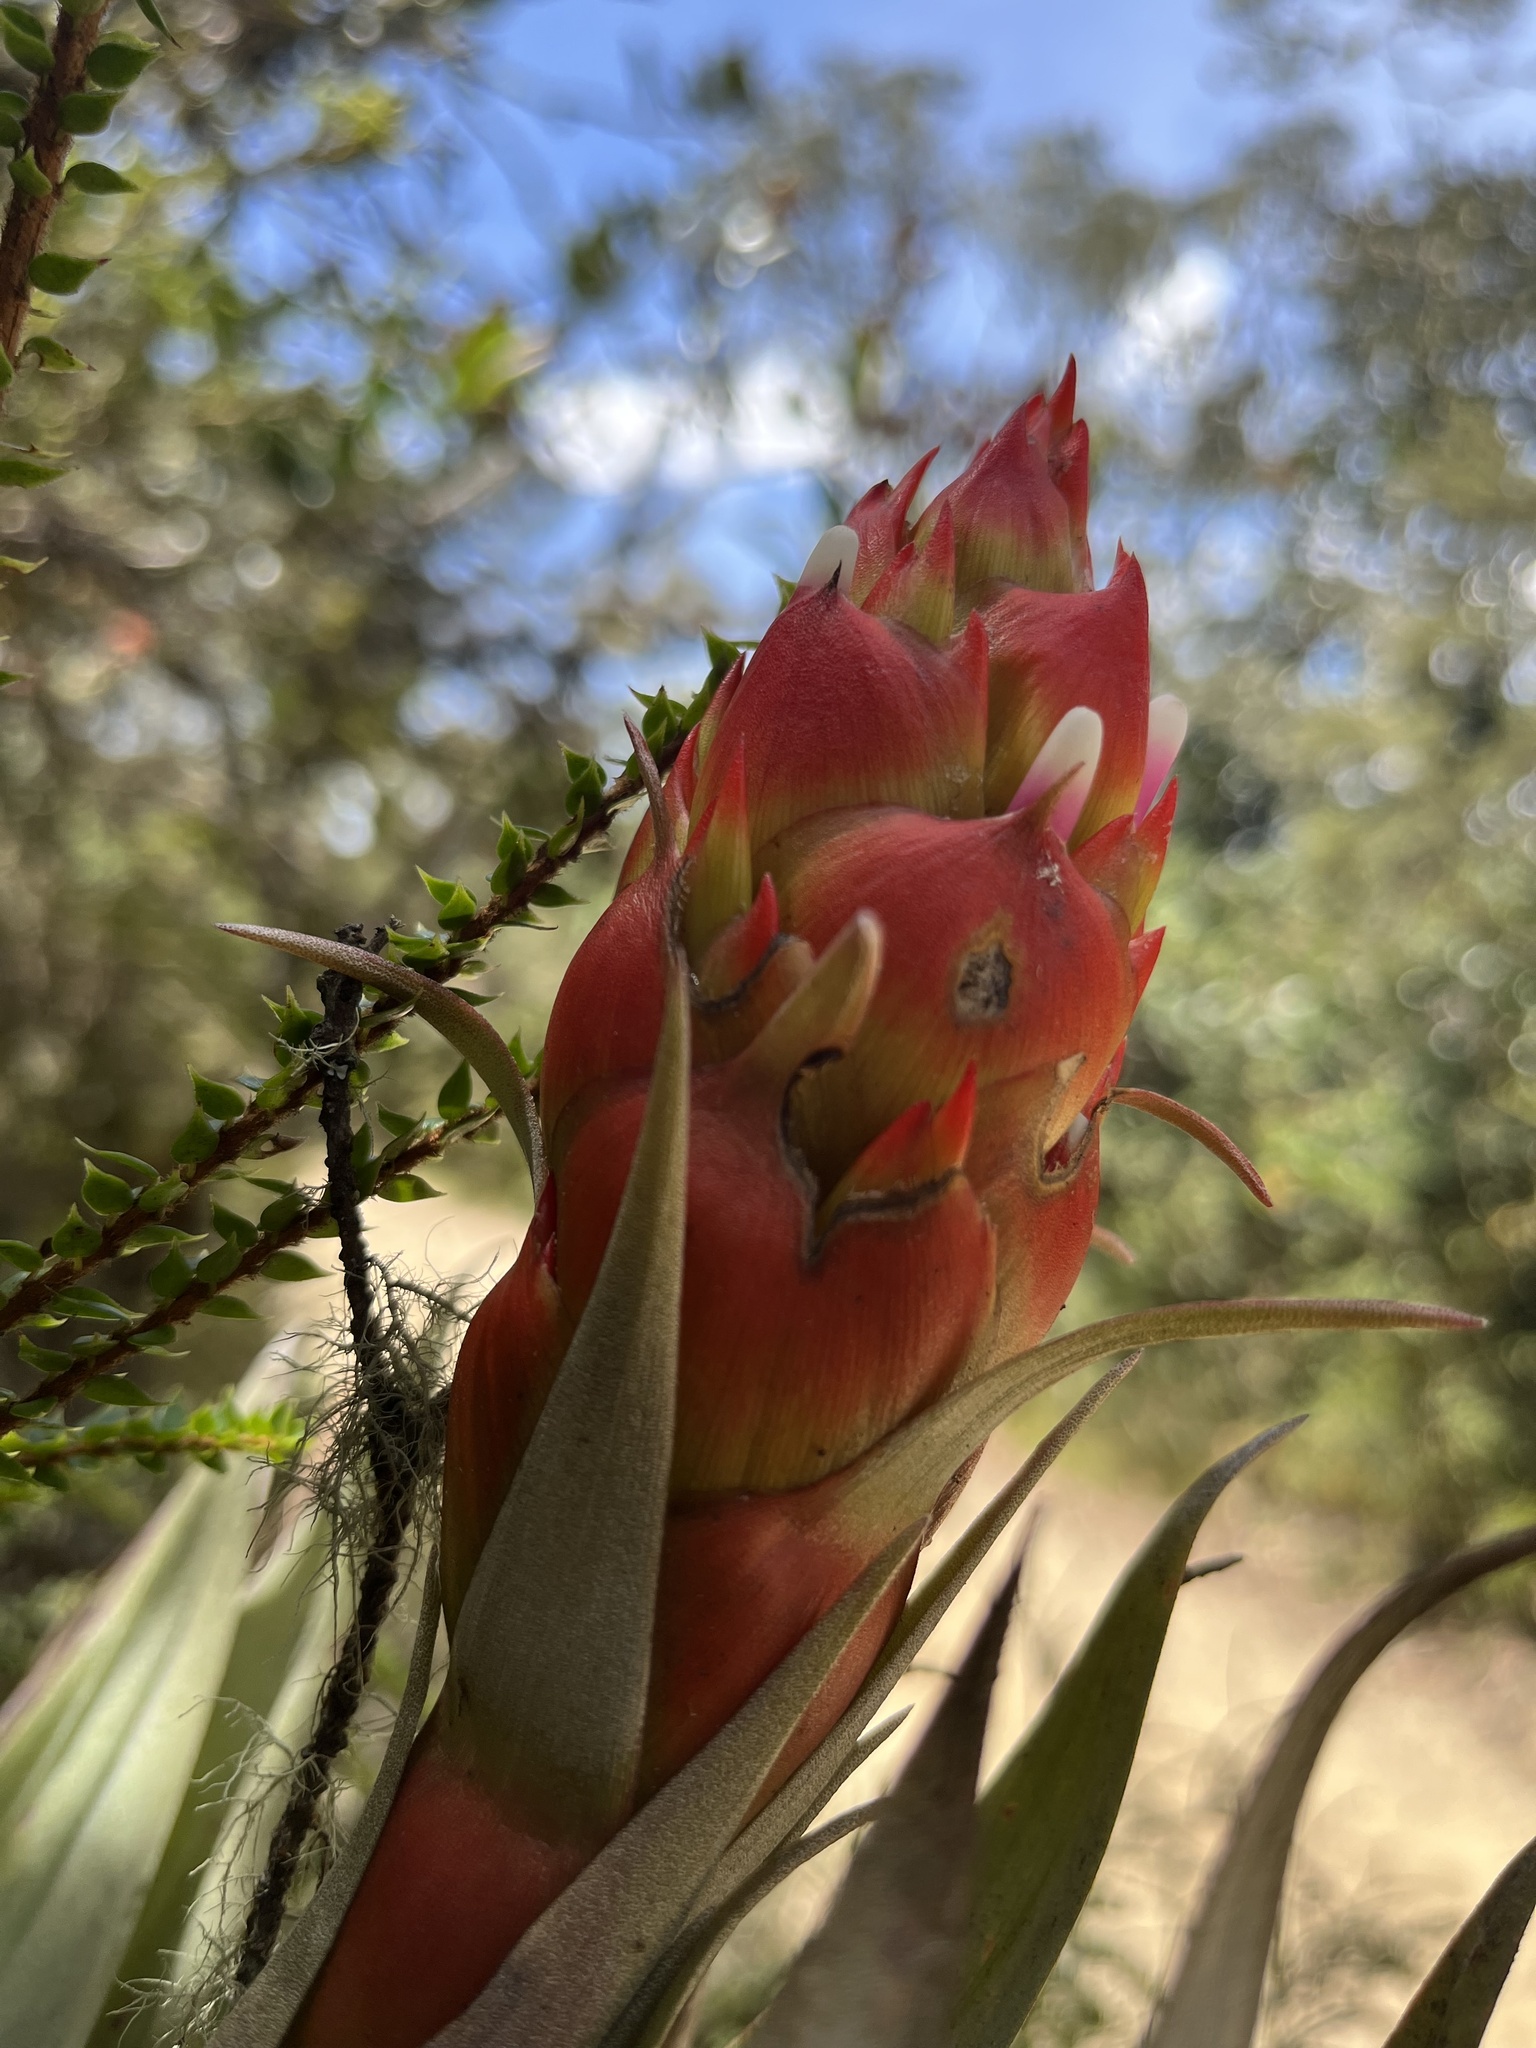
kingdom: Plantae
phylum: Tracheophyta
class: Liliopsida
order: Poales
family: Bromeliaceae
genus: Tillandsia
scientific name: Tillandsia turneri
